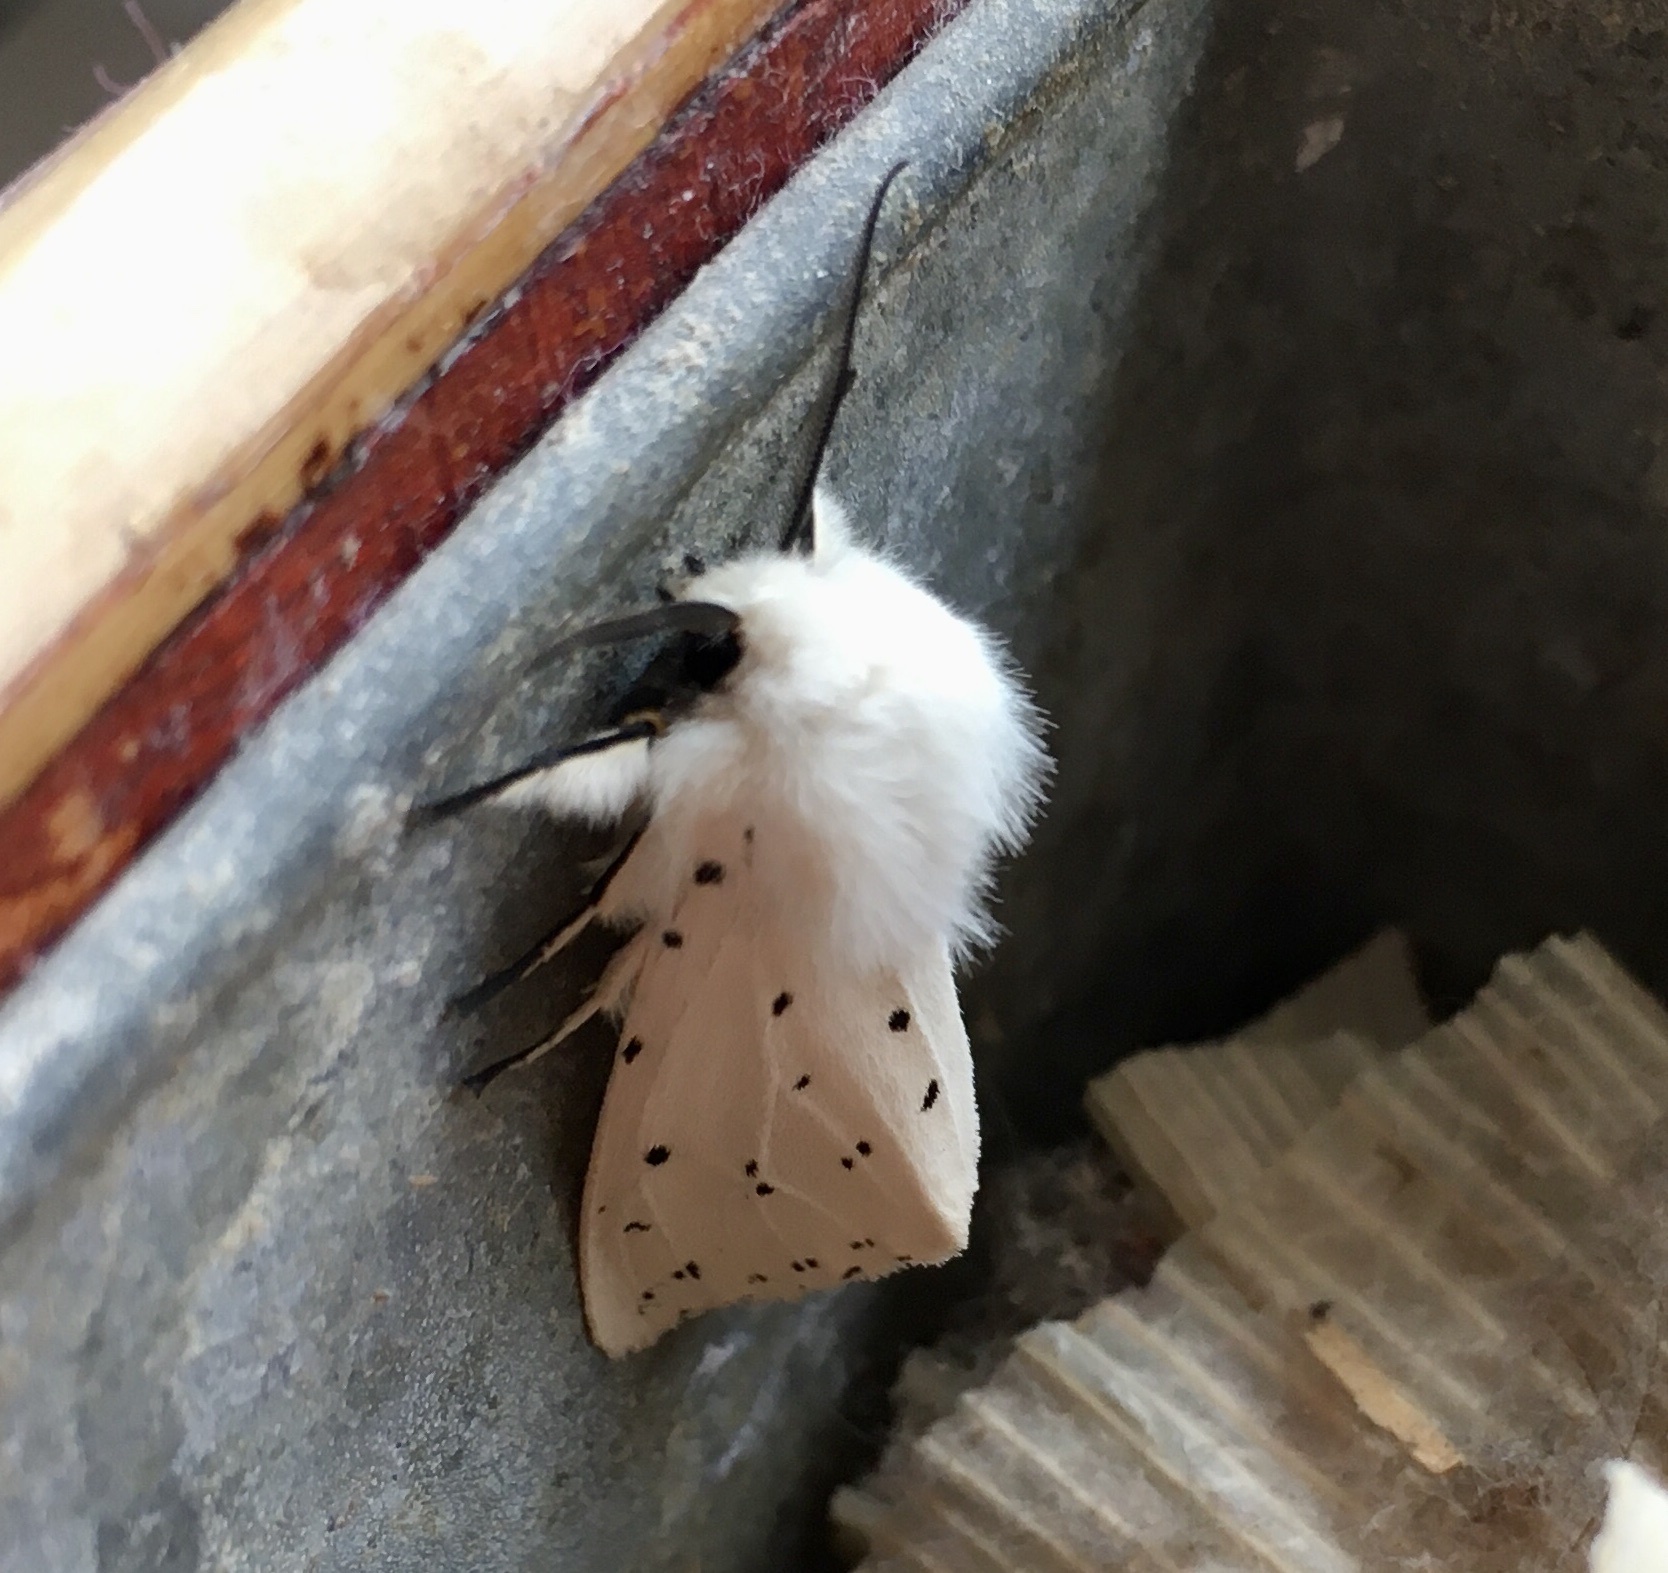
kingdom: Animalia
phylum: Arthropoda
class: Insecta
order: Lepidoptera
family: Erebidae
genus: Spilosoma
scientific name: Spilosoma lubricipeda
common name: White ermine
